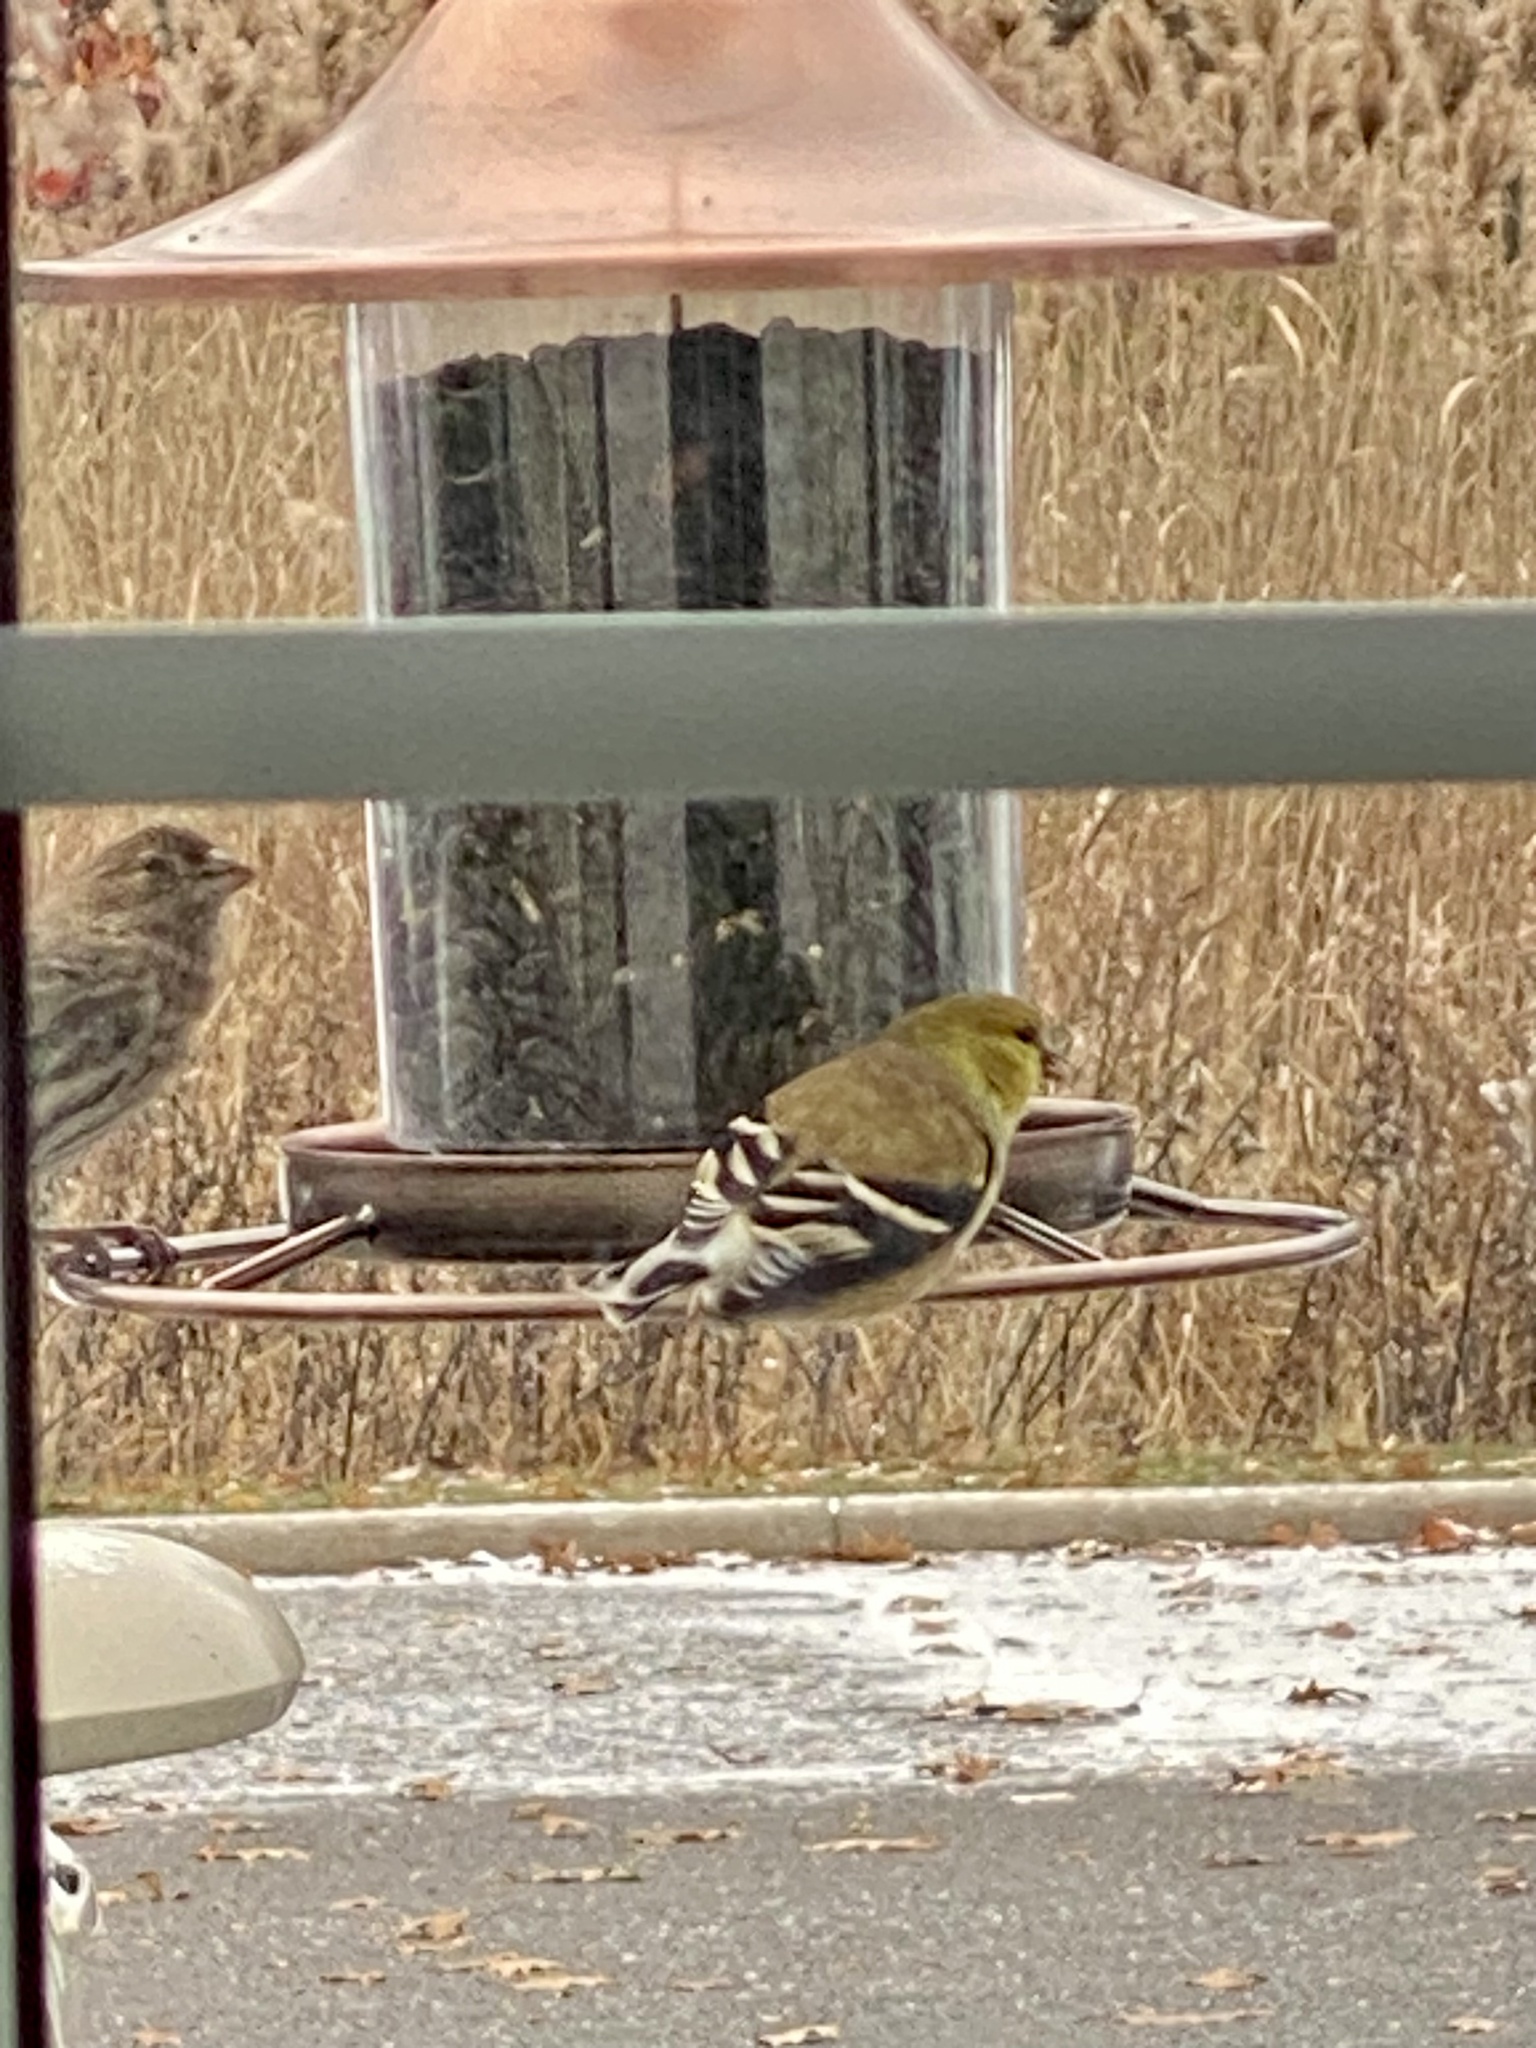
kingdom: Animalia
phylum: Chordata
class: Aves
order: Passeriformes
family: Fringillidae
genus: Spinus
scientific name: Spinus tristis
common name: American goldfinch
